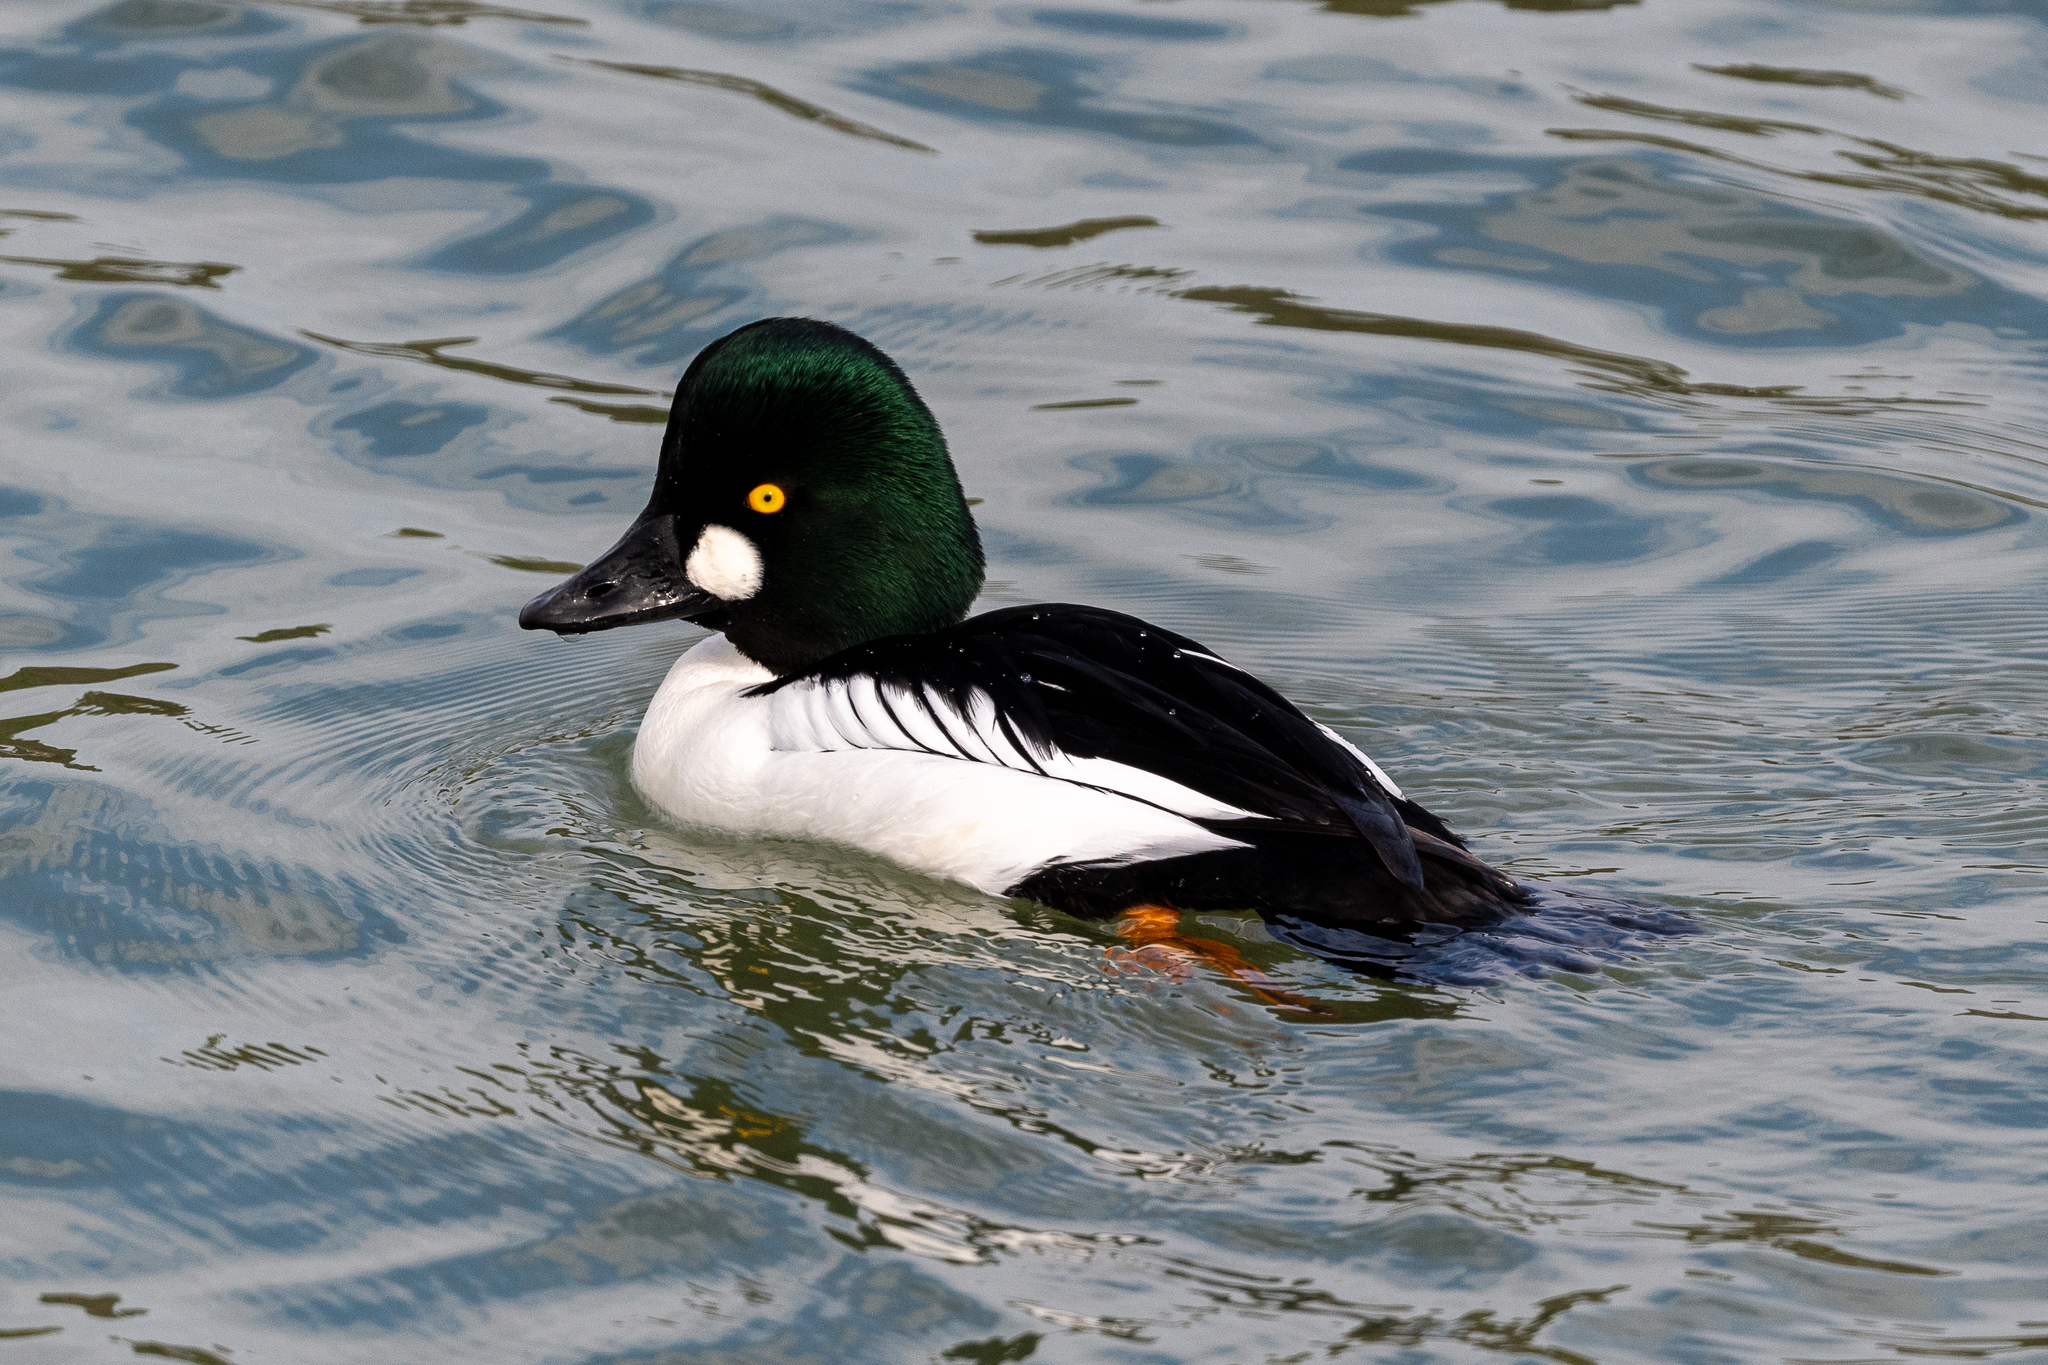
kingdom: Animalia
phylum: Chordata
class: Aves
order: Anseriformes
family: Anatidae
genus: Bucephala
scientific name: Bucephala clangula
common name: Common goldeneye
